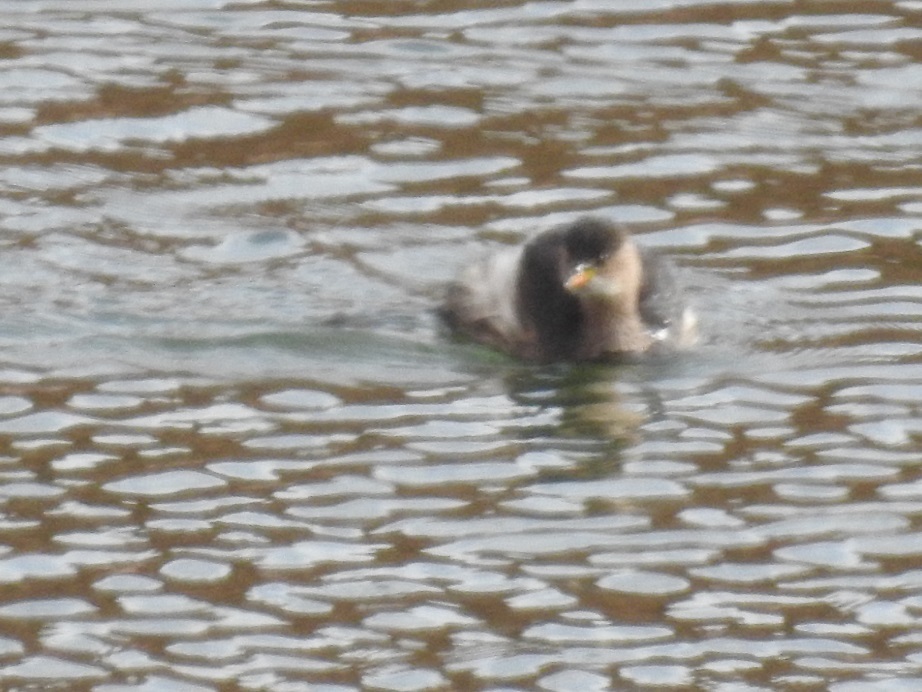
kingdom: Animalia
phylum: Chordata
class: Aves
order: Podicipediformes
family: Podicipedidae
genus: Tachybaptus
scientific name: Tachybaptus ruficollis
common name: Little grebe
